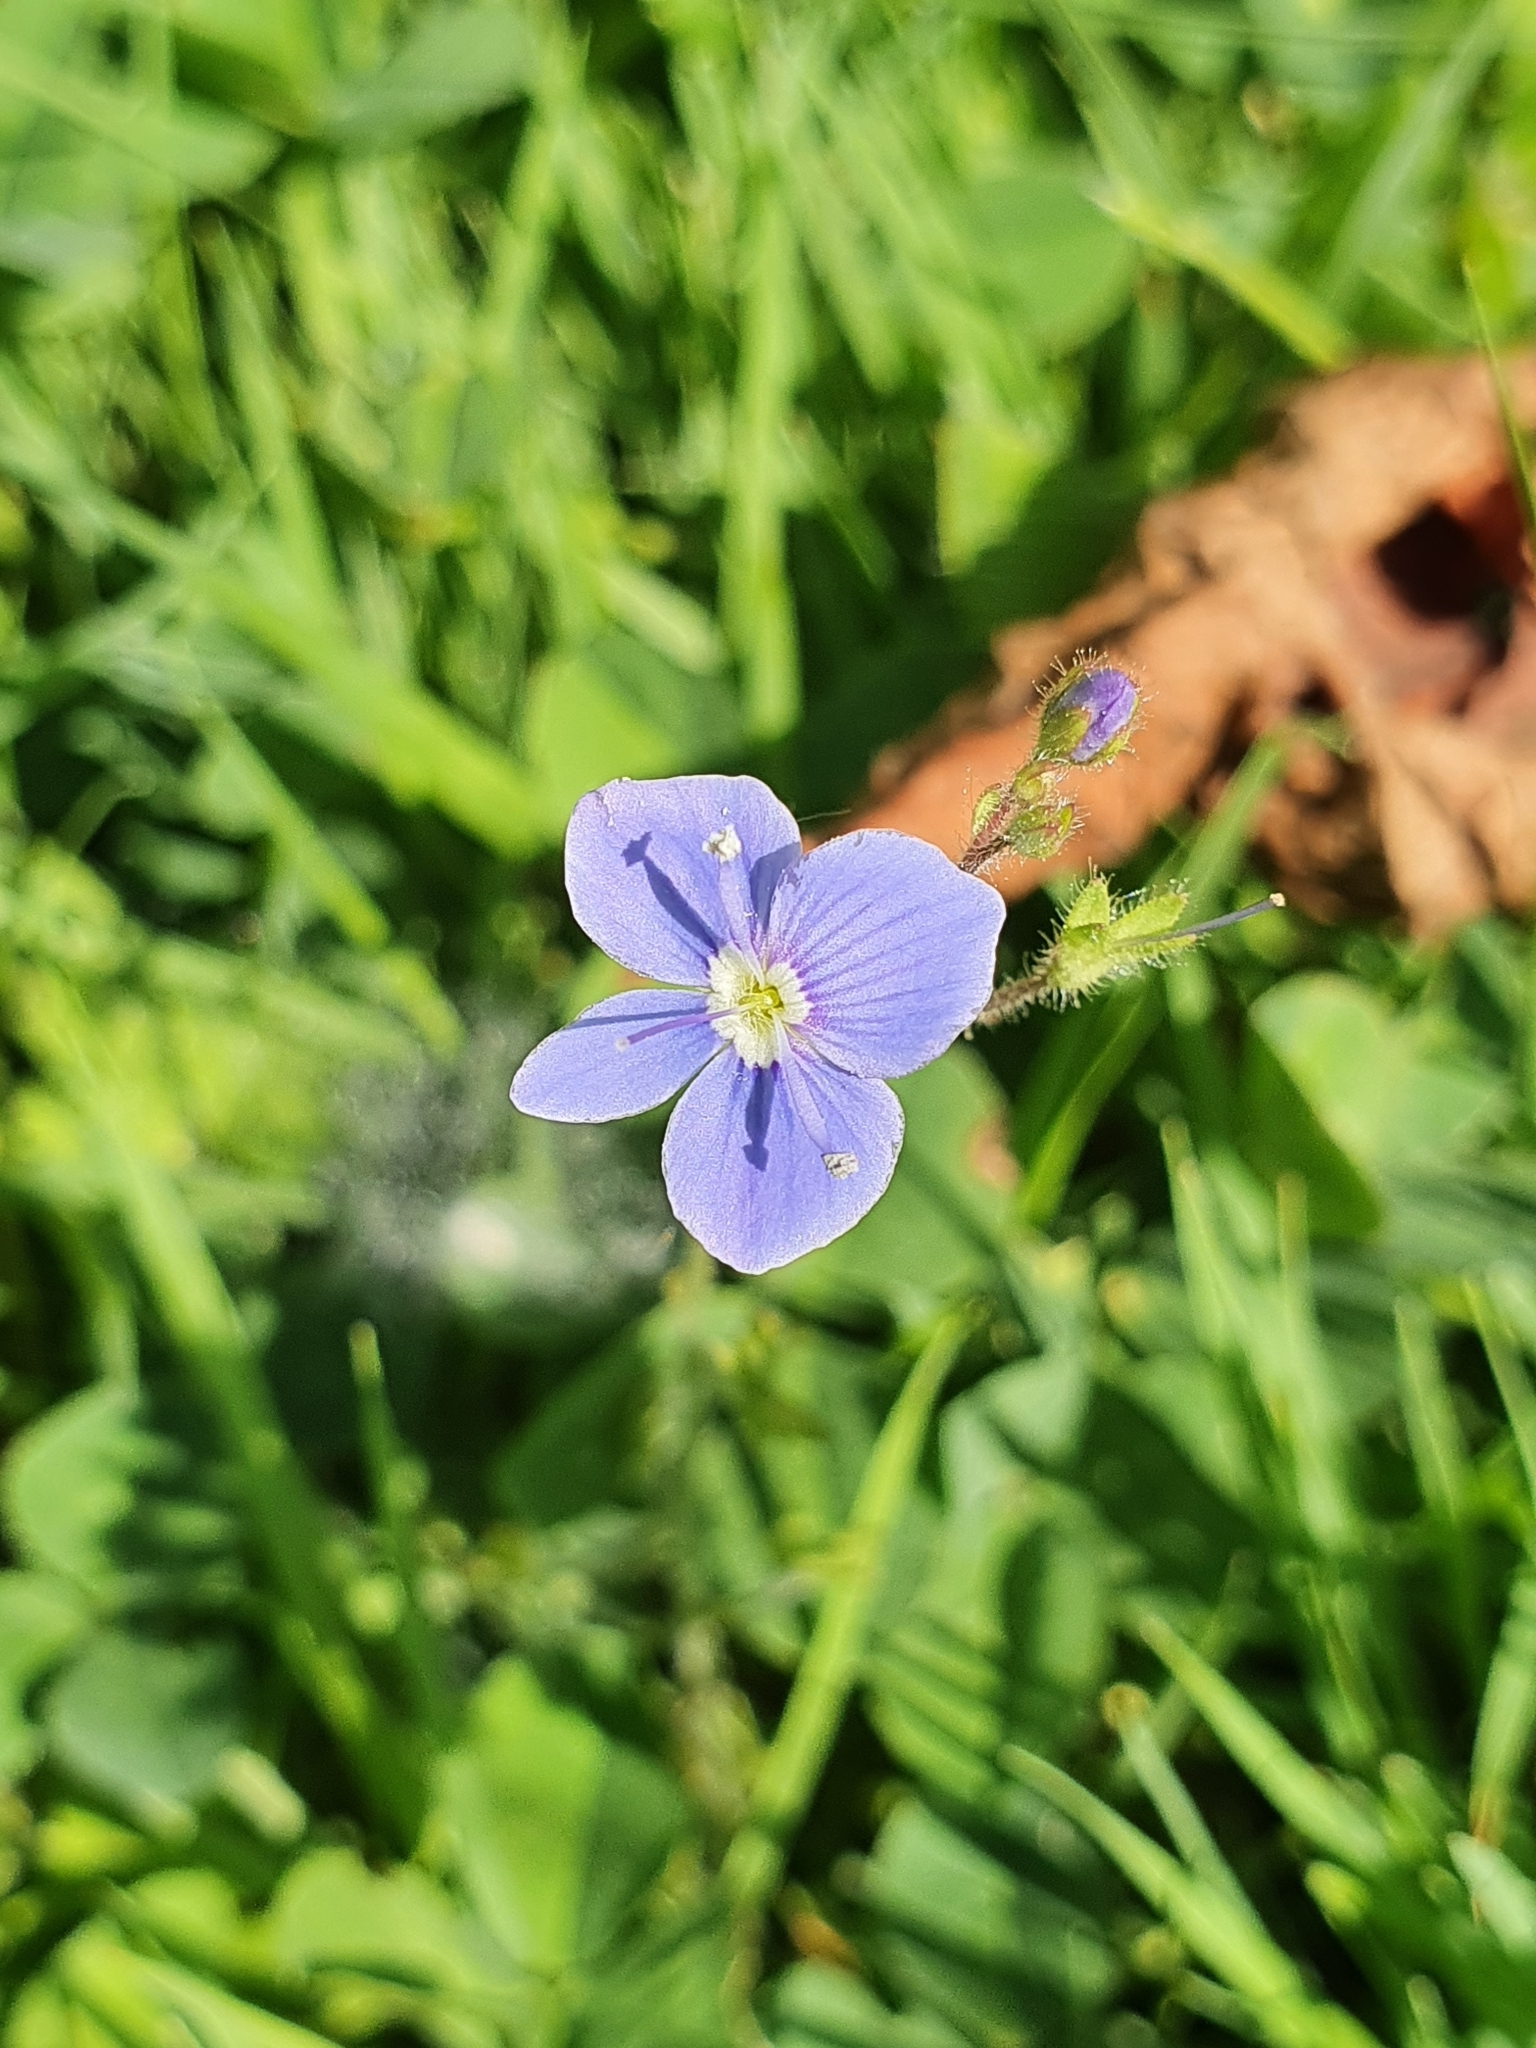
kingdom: Plantae
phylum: Tracheophyta
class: Magnoliopsida
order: Lamiales
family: Plantaginaceae
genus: Veronica
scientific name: Veronica chamaedrys
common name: Germander speedwell
